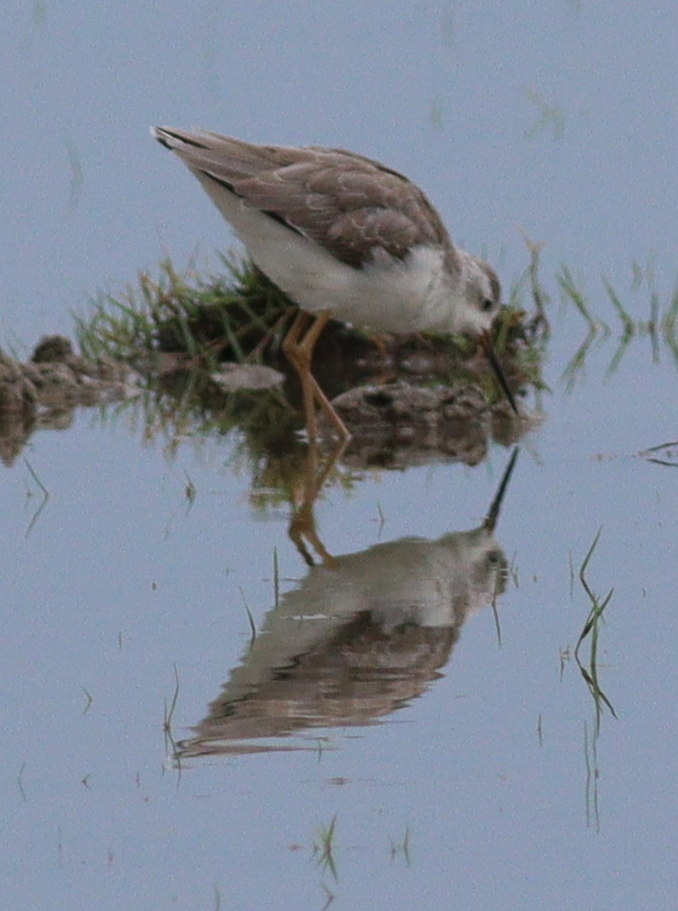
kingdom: Animalia
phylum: Chordata
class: Aves
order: Charadriiformes
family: Scolopacidae
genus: Tringa
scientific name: Tringa stagnatilis
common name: Marsh sandpiper
